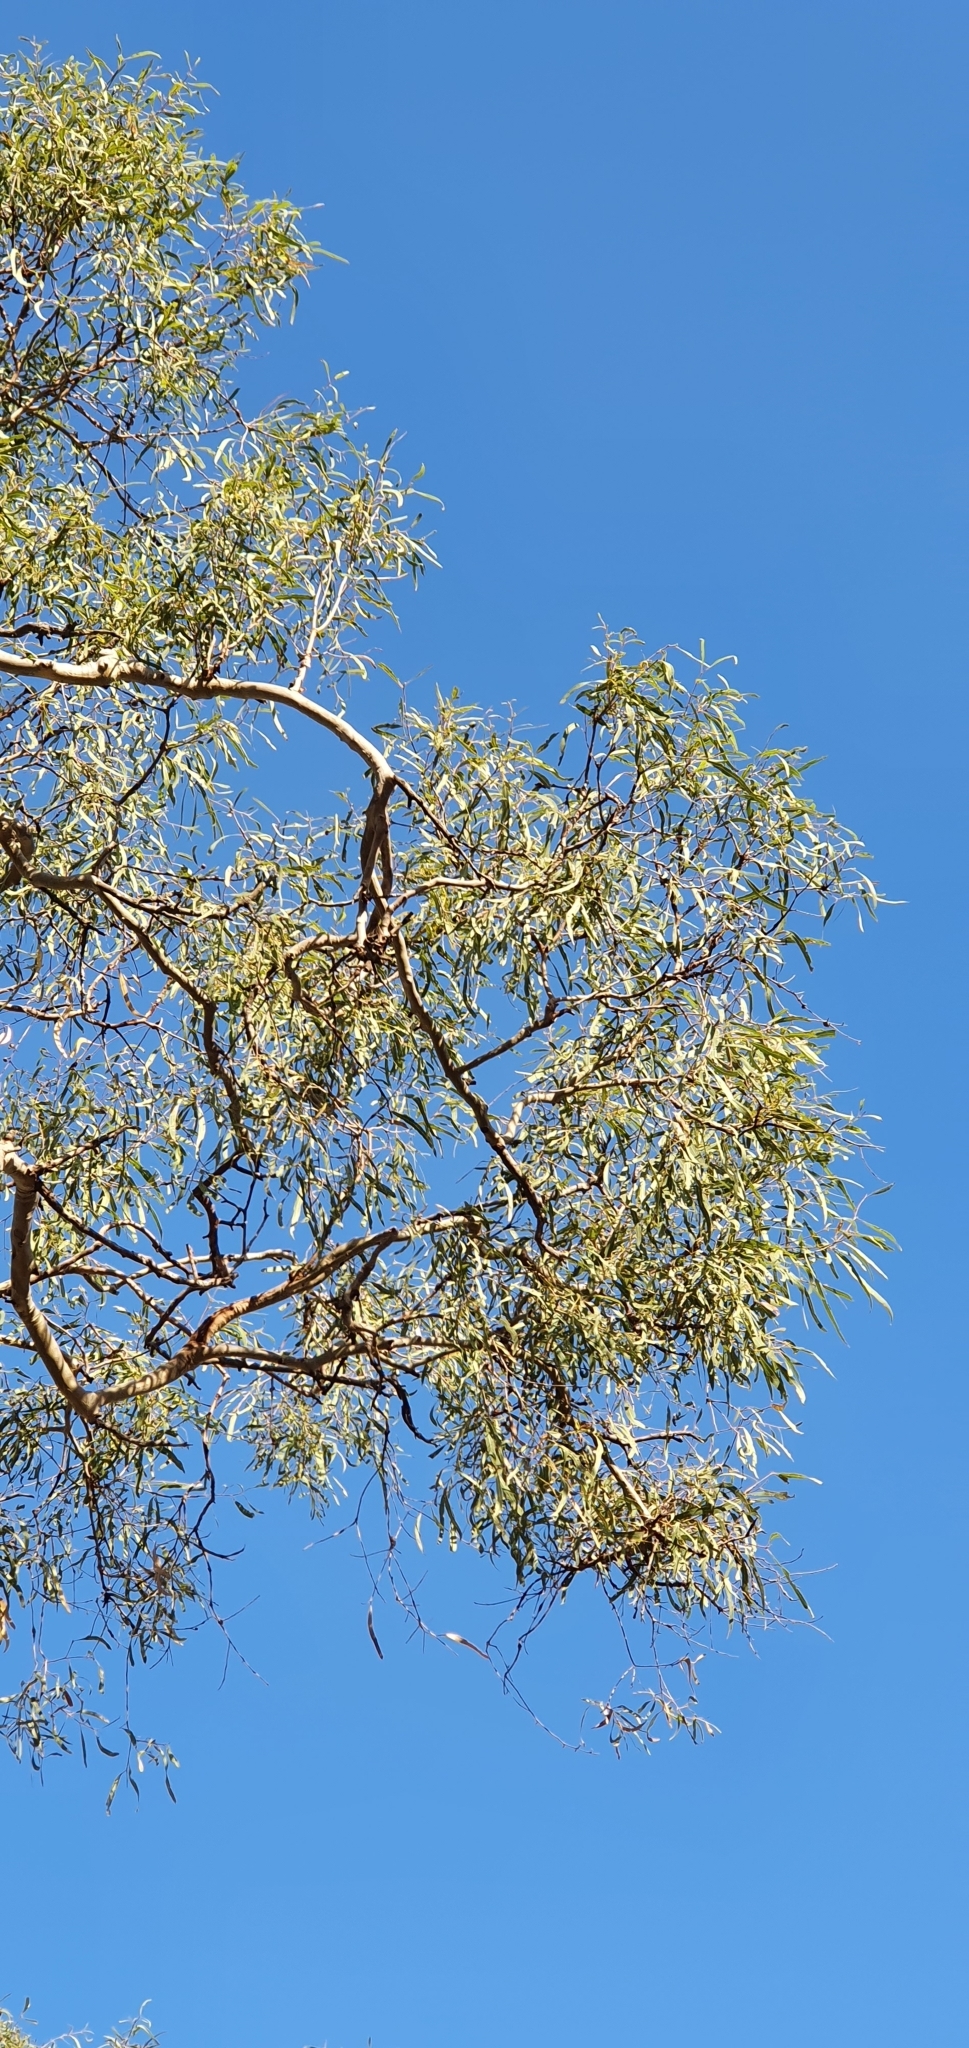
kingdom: Plantae
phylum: Tracheophyta
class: Magnoliopsida
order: Myrtales
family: Myrtaceae
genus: Corymbia
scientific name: Corymbia tessellaris
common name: Carbeen
